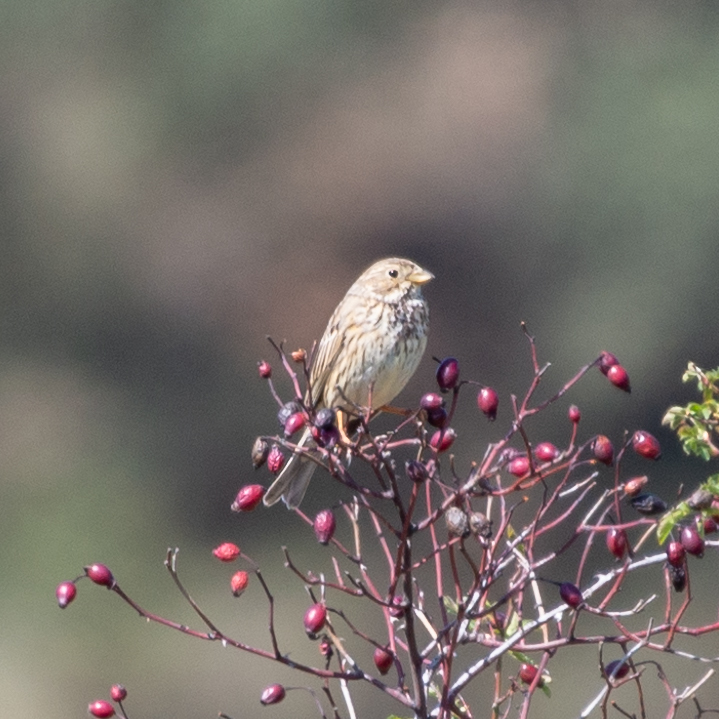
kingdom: Animalia
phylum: Chordata
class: Aves
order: Passeriformes
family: Emberizidae
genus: Emberiza
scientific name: Emberiza calandra
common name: Corn bunting
